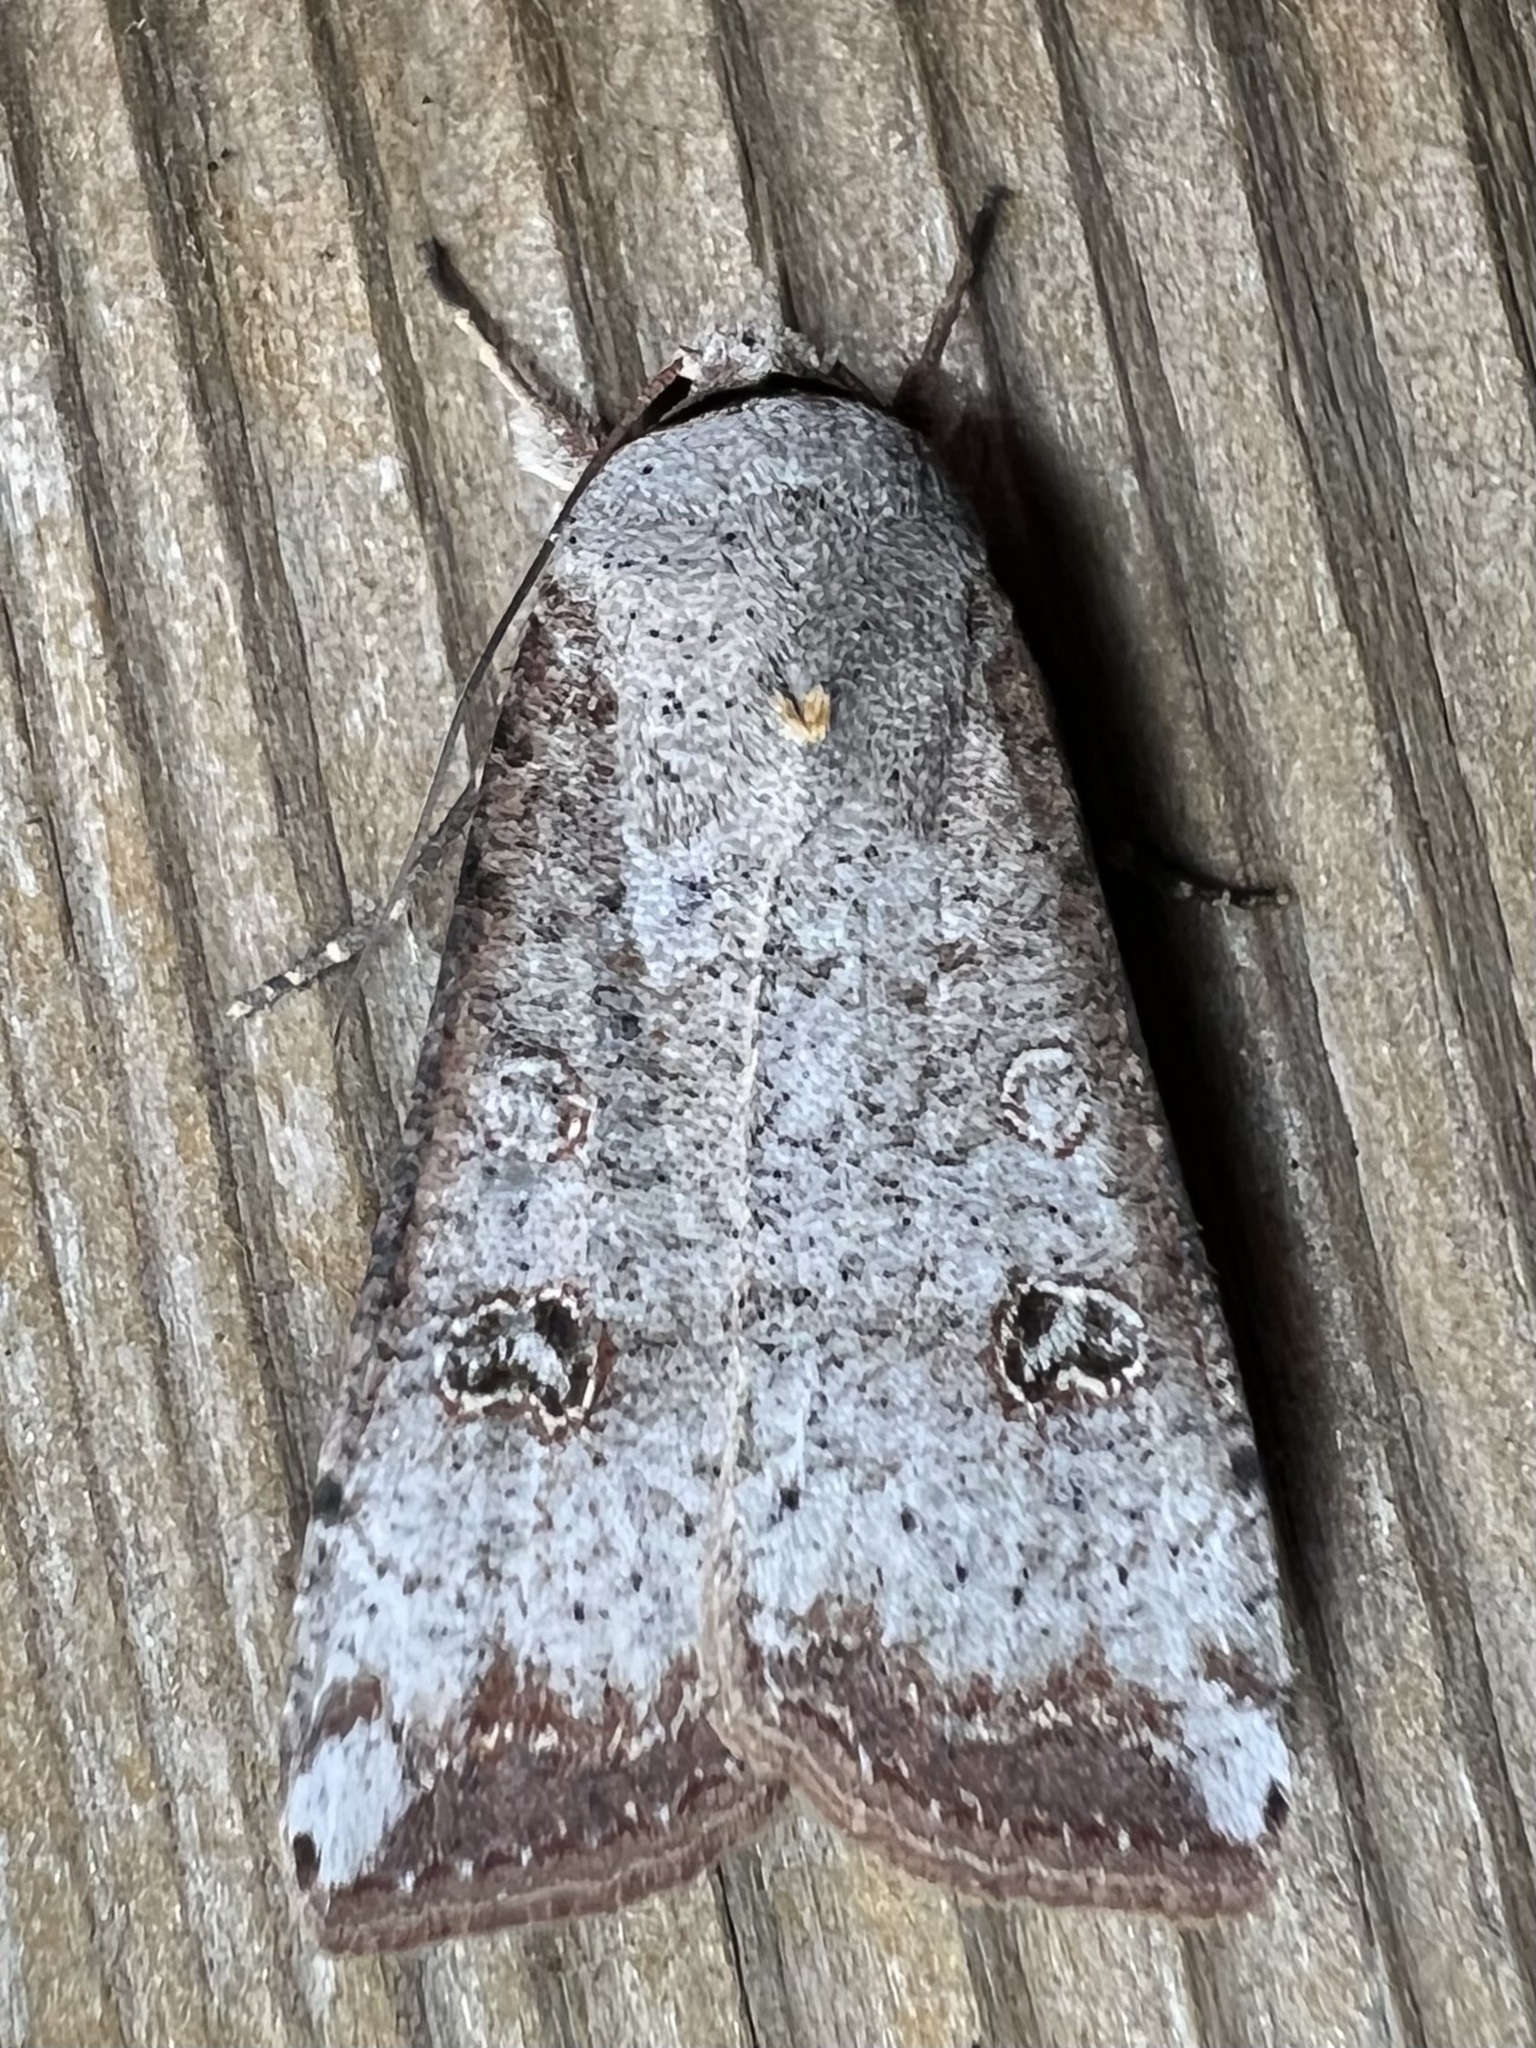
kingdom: Animalia
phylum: Arthropoda
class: Insecta
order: Lepidoptera
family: Noctuidae
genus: Anicla
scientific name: Anicla infecta
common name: Green cutworm
